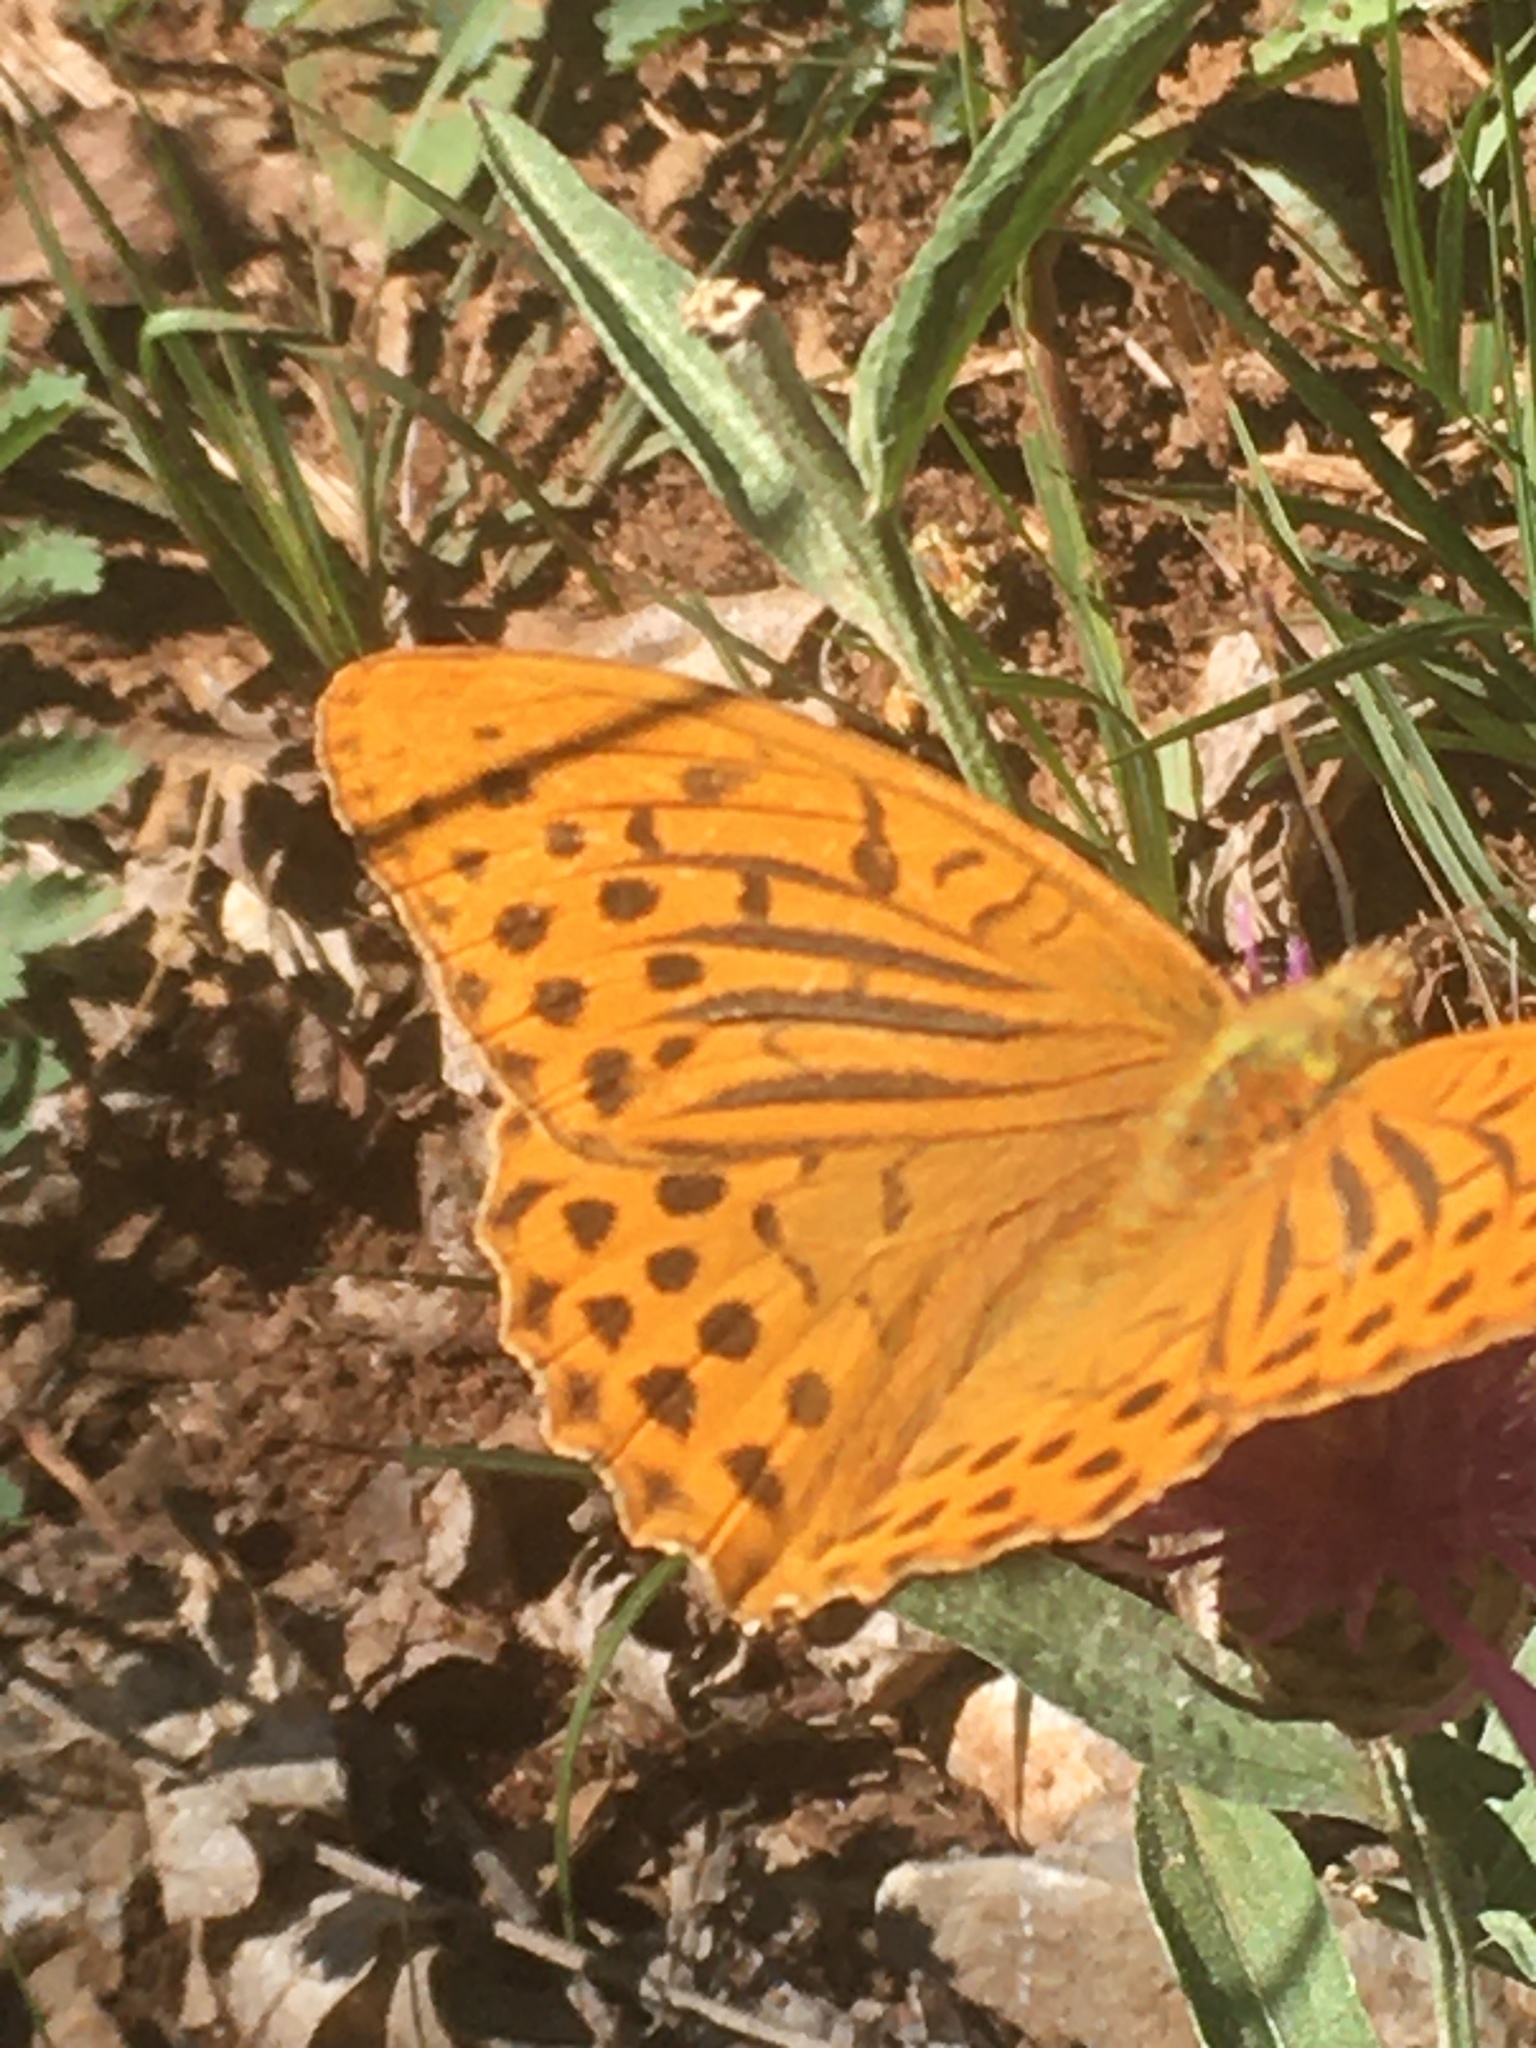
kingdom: Animalia
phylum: Arthropoda
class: Insecta
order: Lepidoptera
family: Nymphalidae
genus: Argynnis
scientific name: Argynnis paphia
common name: Silver-washed fritillary
